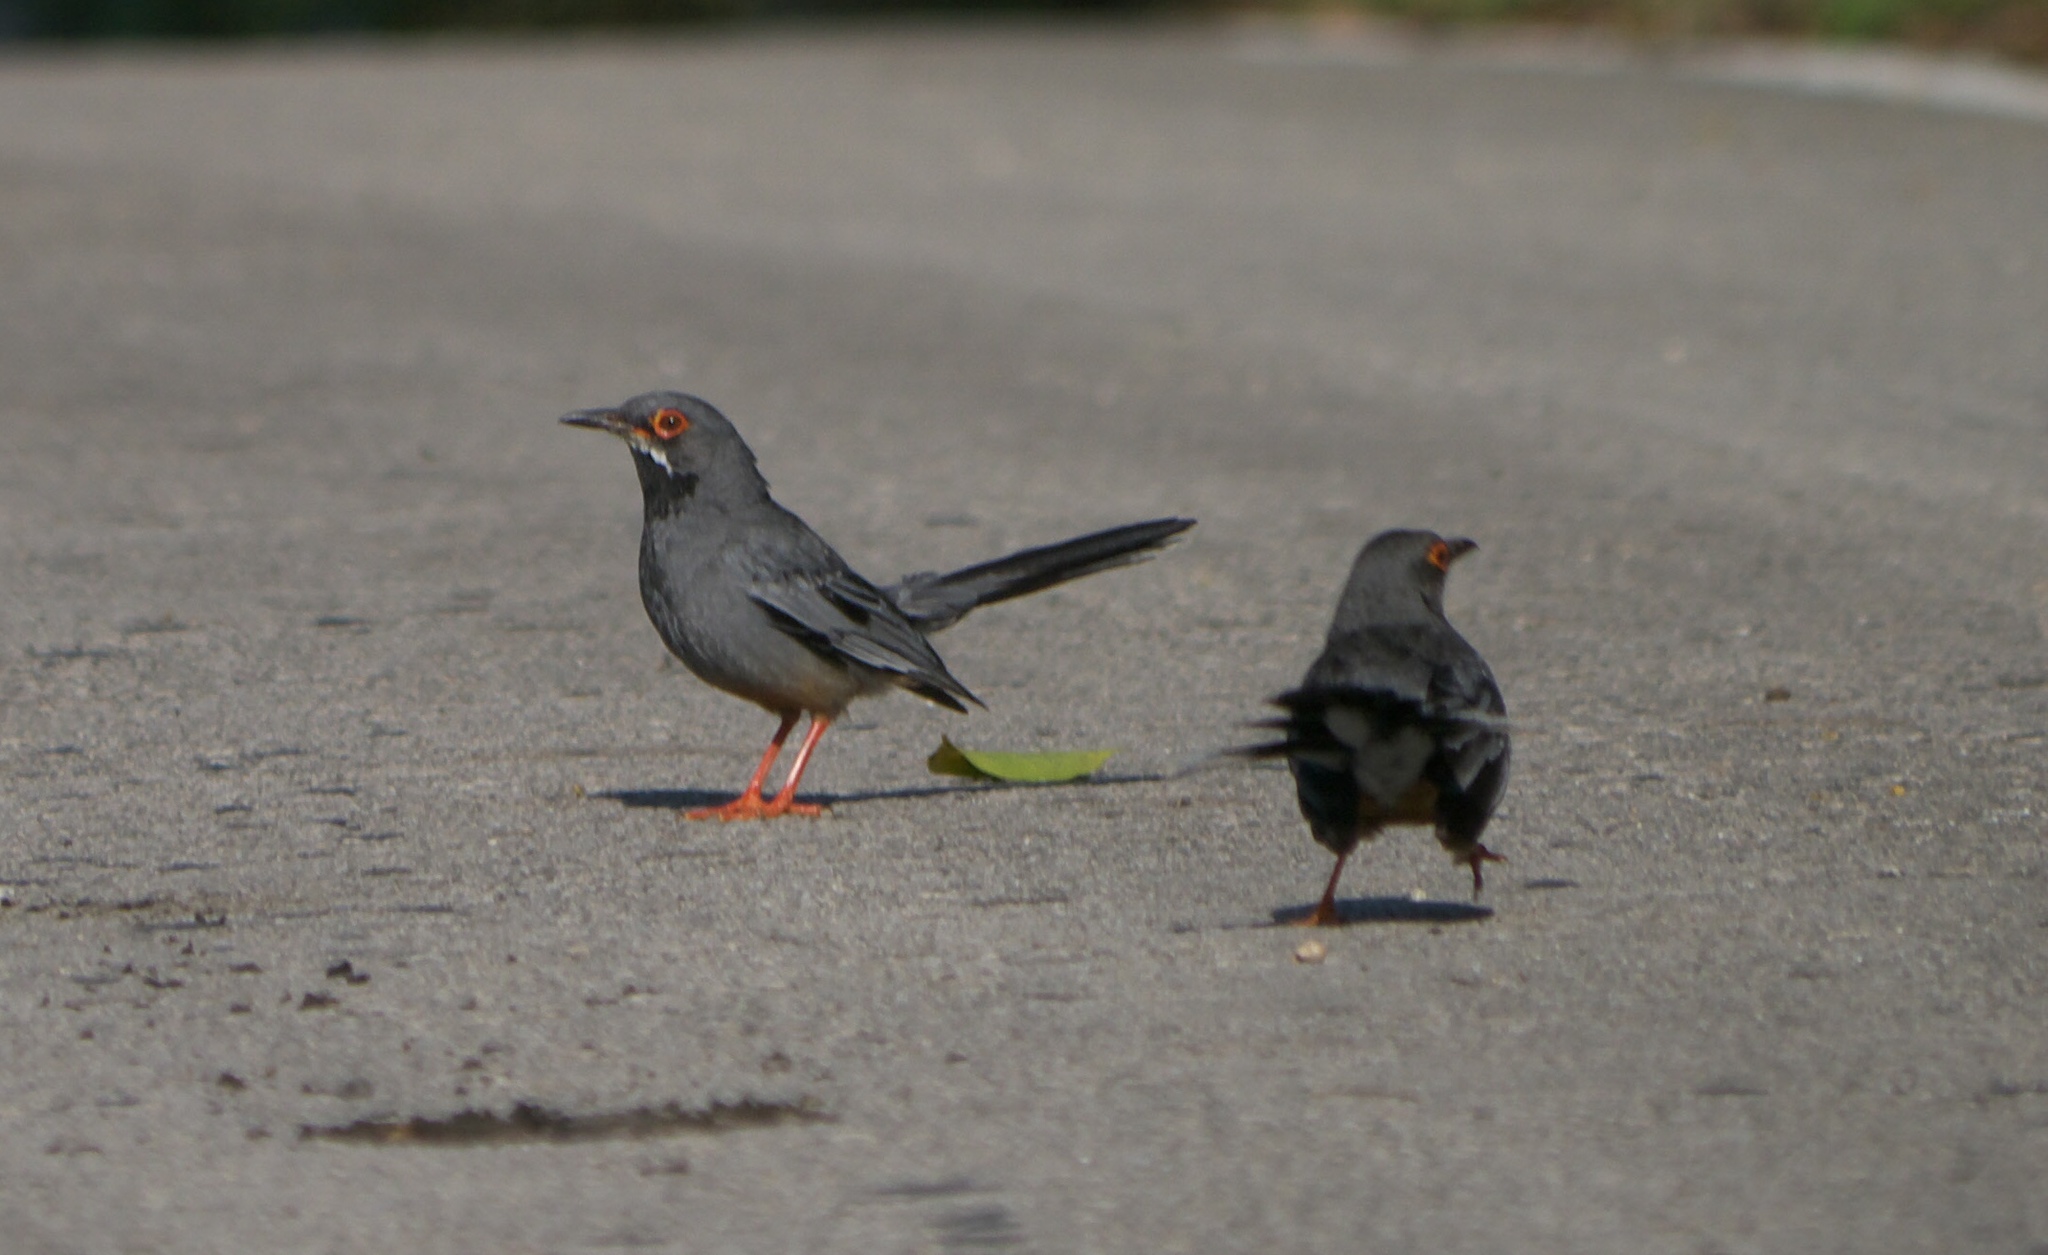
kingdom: Animalia
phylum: Chordata
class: Aves
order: Passeriformes
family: Turdidae
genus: Turdus
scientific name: Turdus plumbeus
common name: Red-legged thrush
